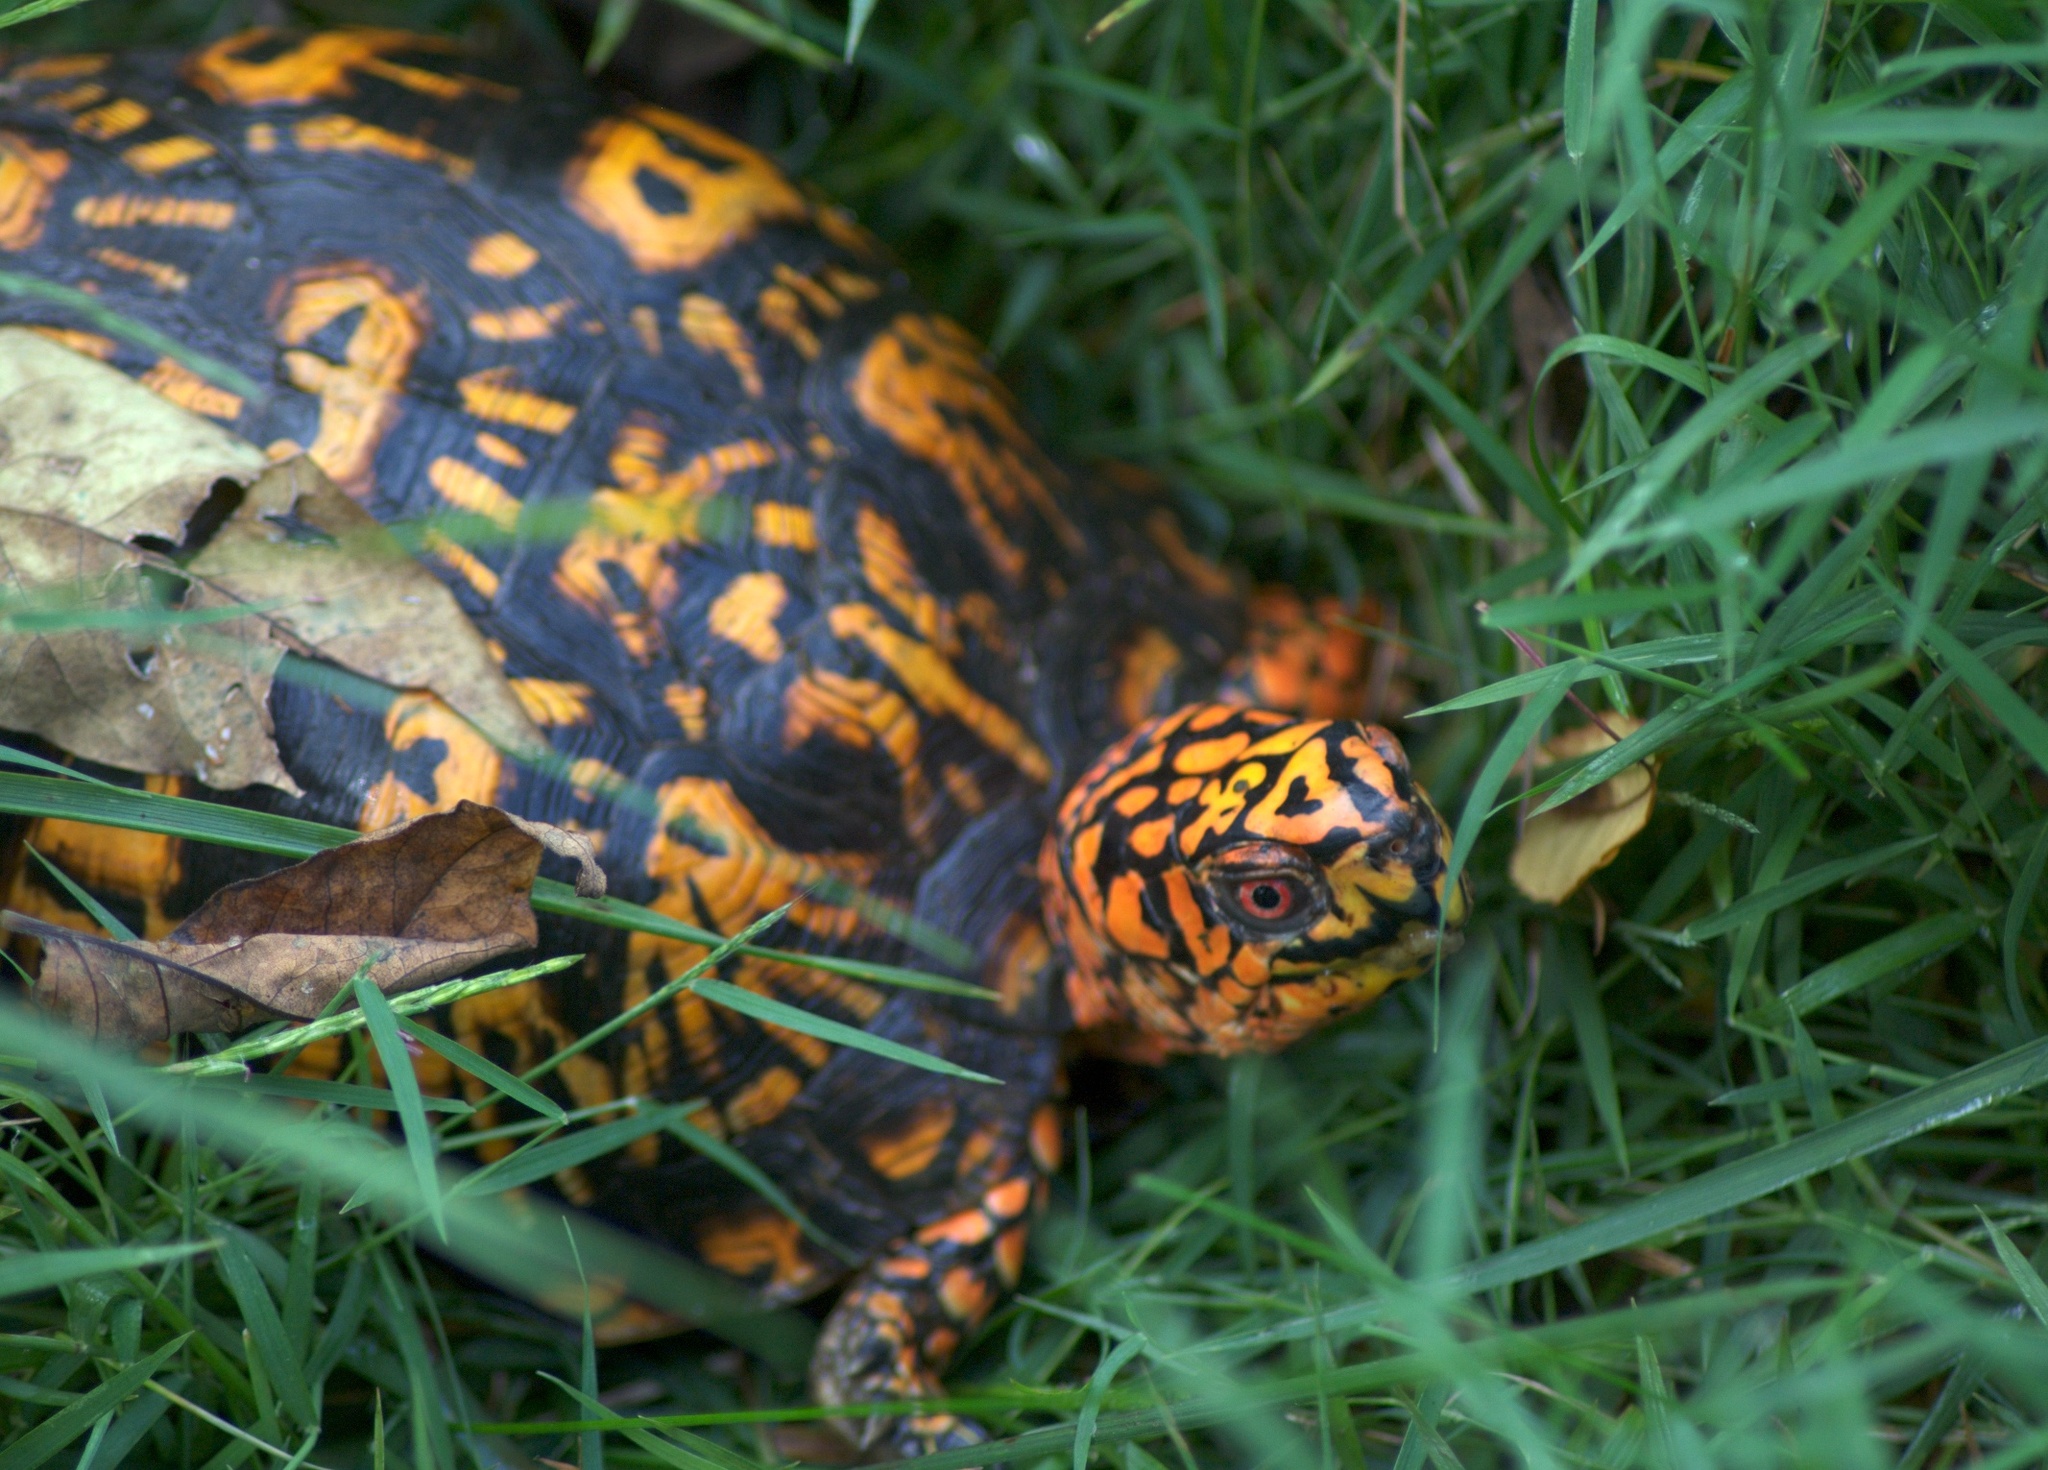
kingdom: Animalia
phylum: Chordata
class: Testudines
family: Emydidae
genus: Terrapene
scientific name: Terrapene carolina
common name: Common box turtle
